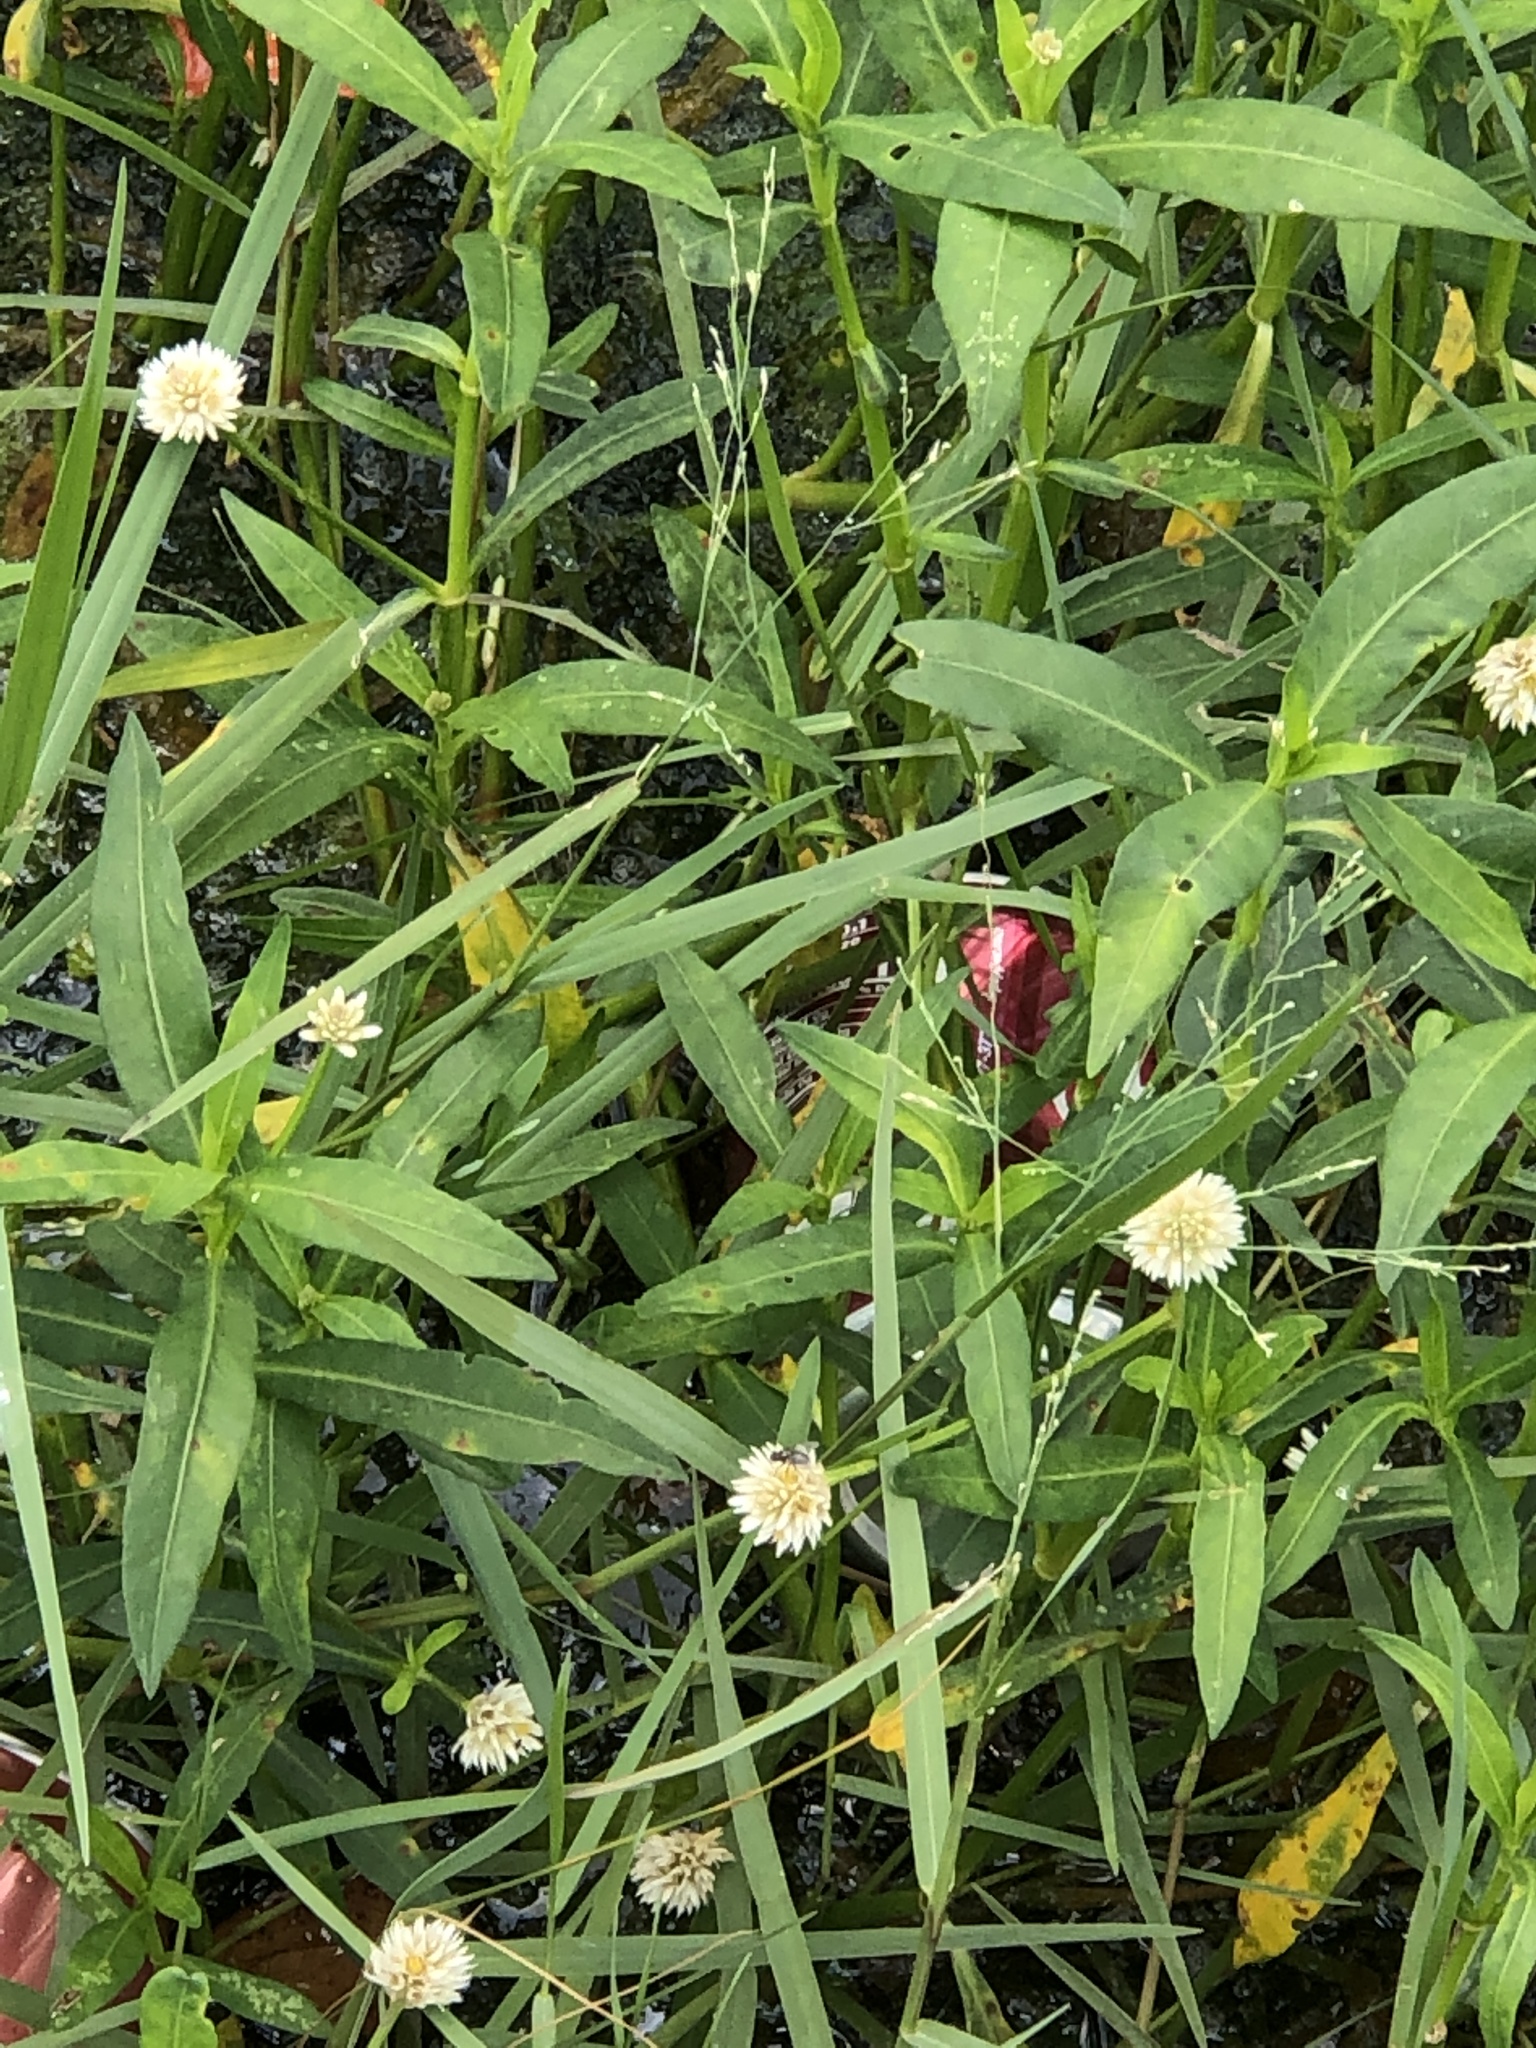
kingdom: Plantae
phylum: Tracheophyta
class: Magnoliopsida
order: Caryophyllales
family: Amaranthaceae
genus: Alternanthera
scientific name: Alternanthera philoxeroides
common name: Alligatorweed
